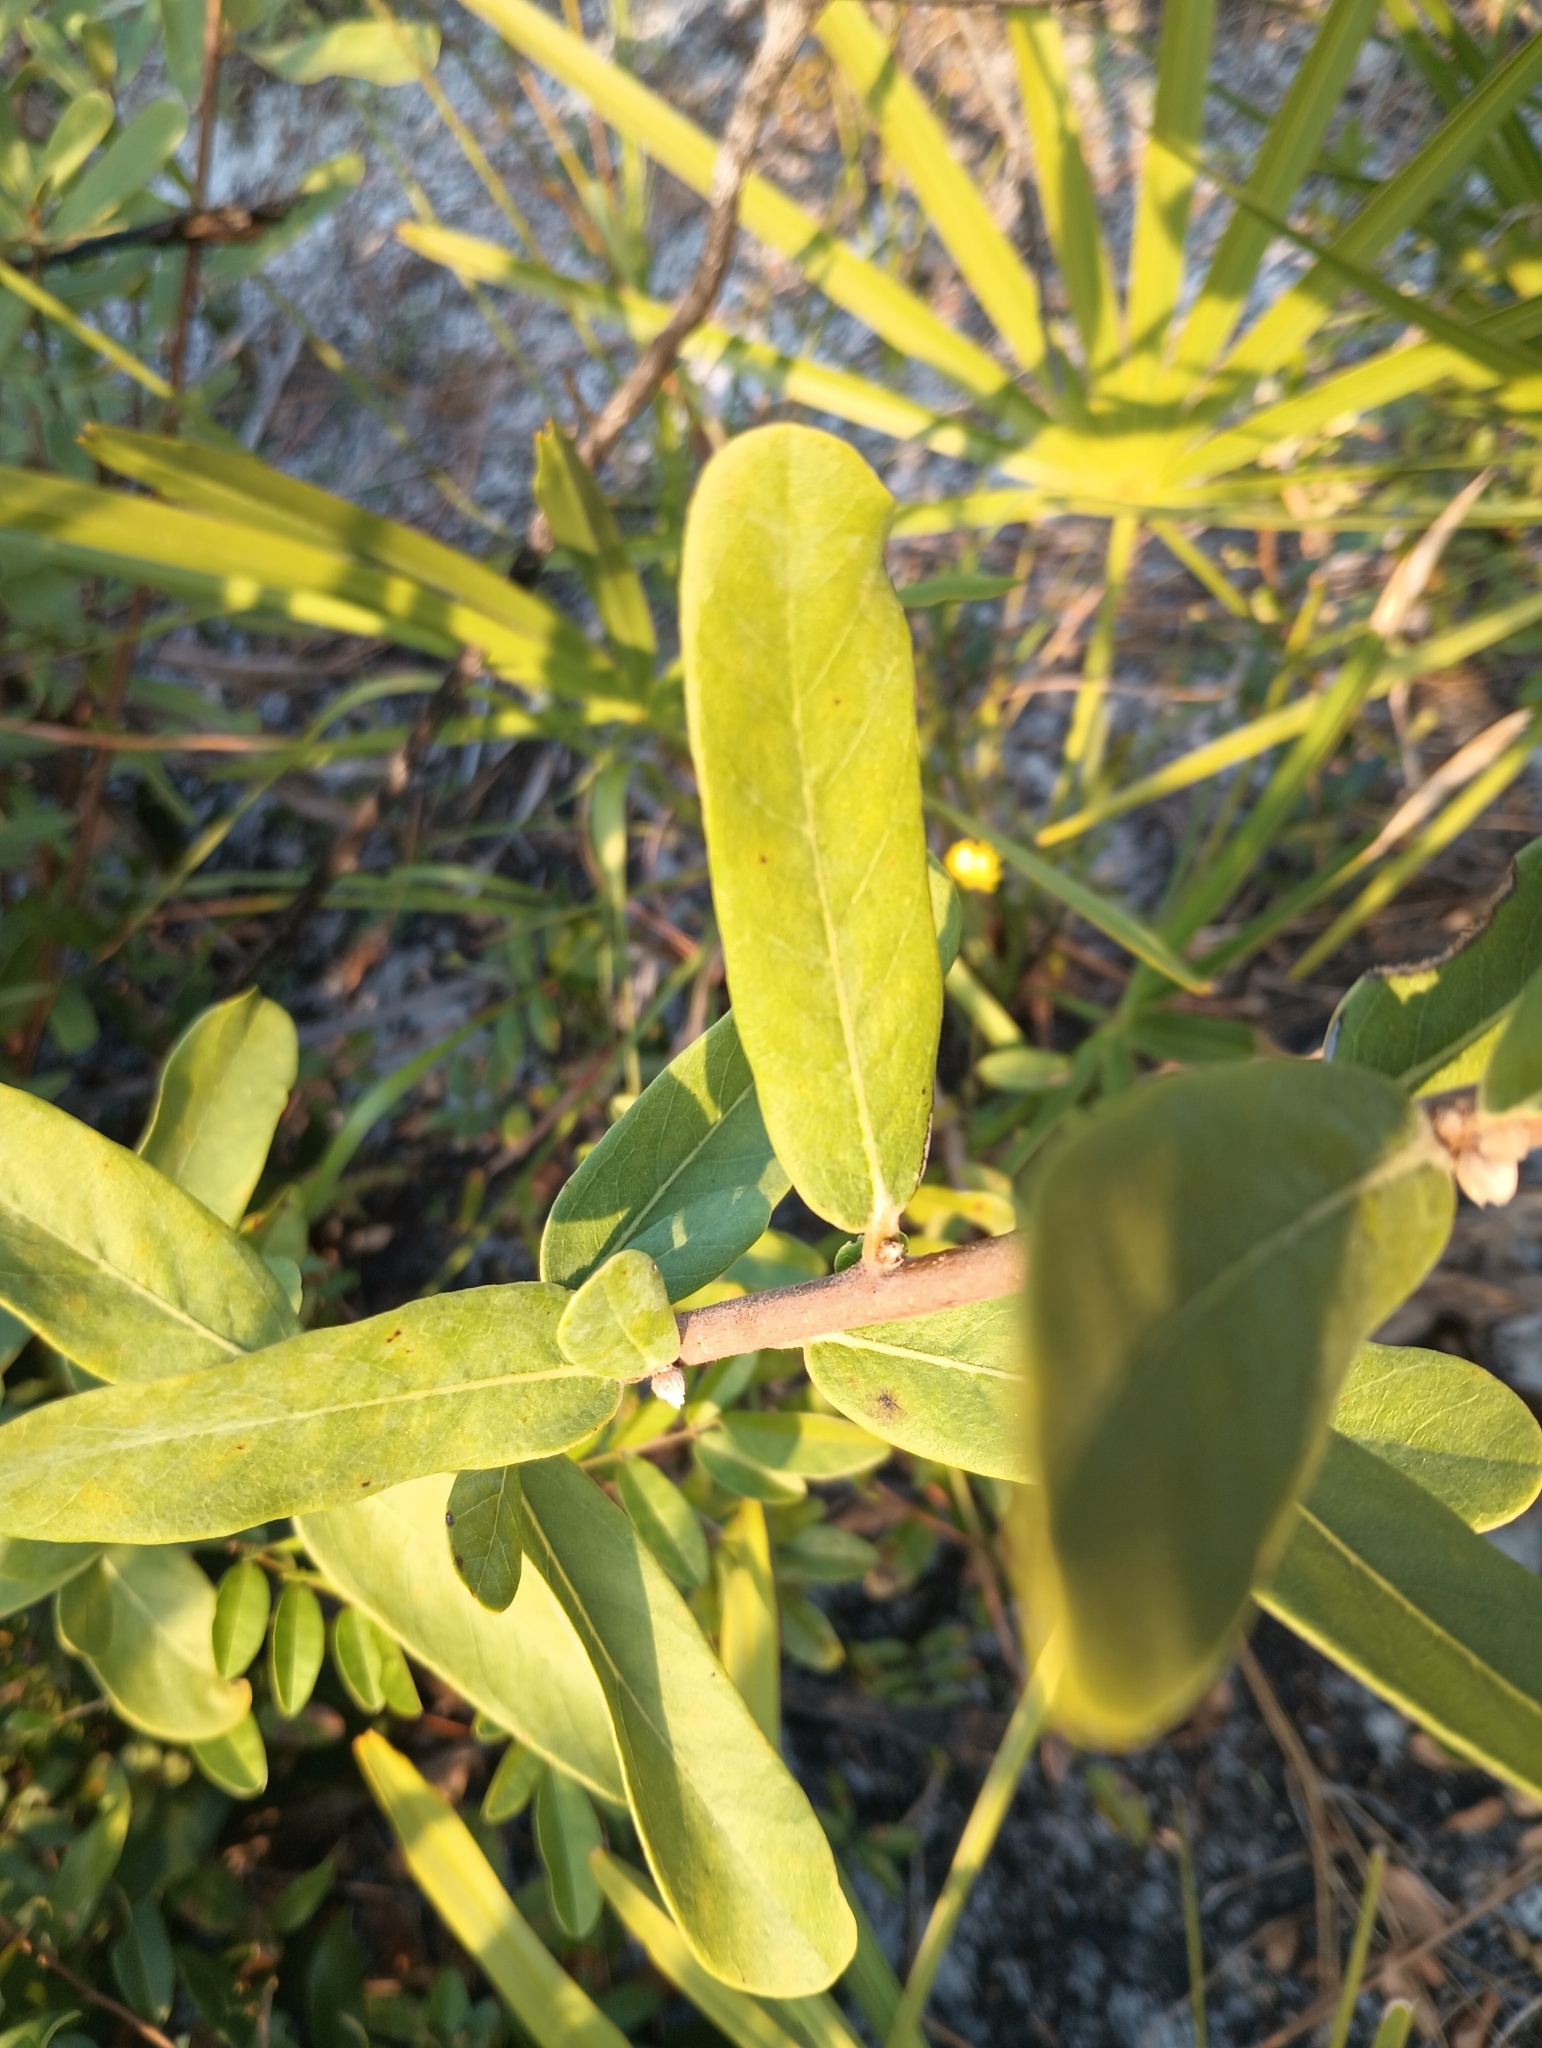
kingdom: Plantae
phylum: Tracheophyta
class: Magnoliopsida
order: Magnoliales
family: Annonaceae
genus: Asimina
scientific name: Asimina reticulata
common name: Flag pawpaw
